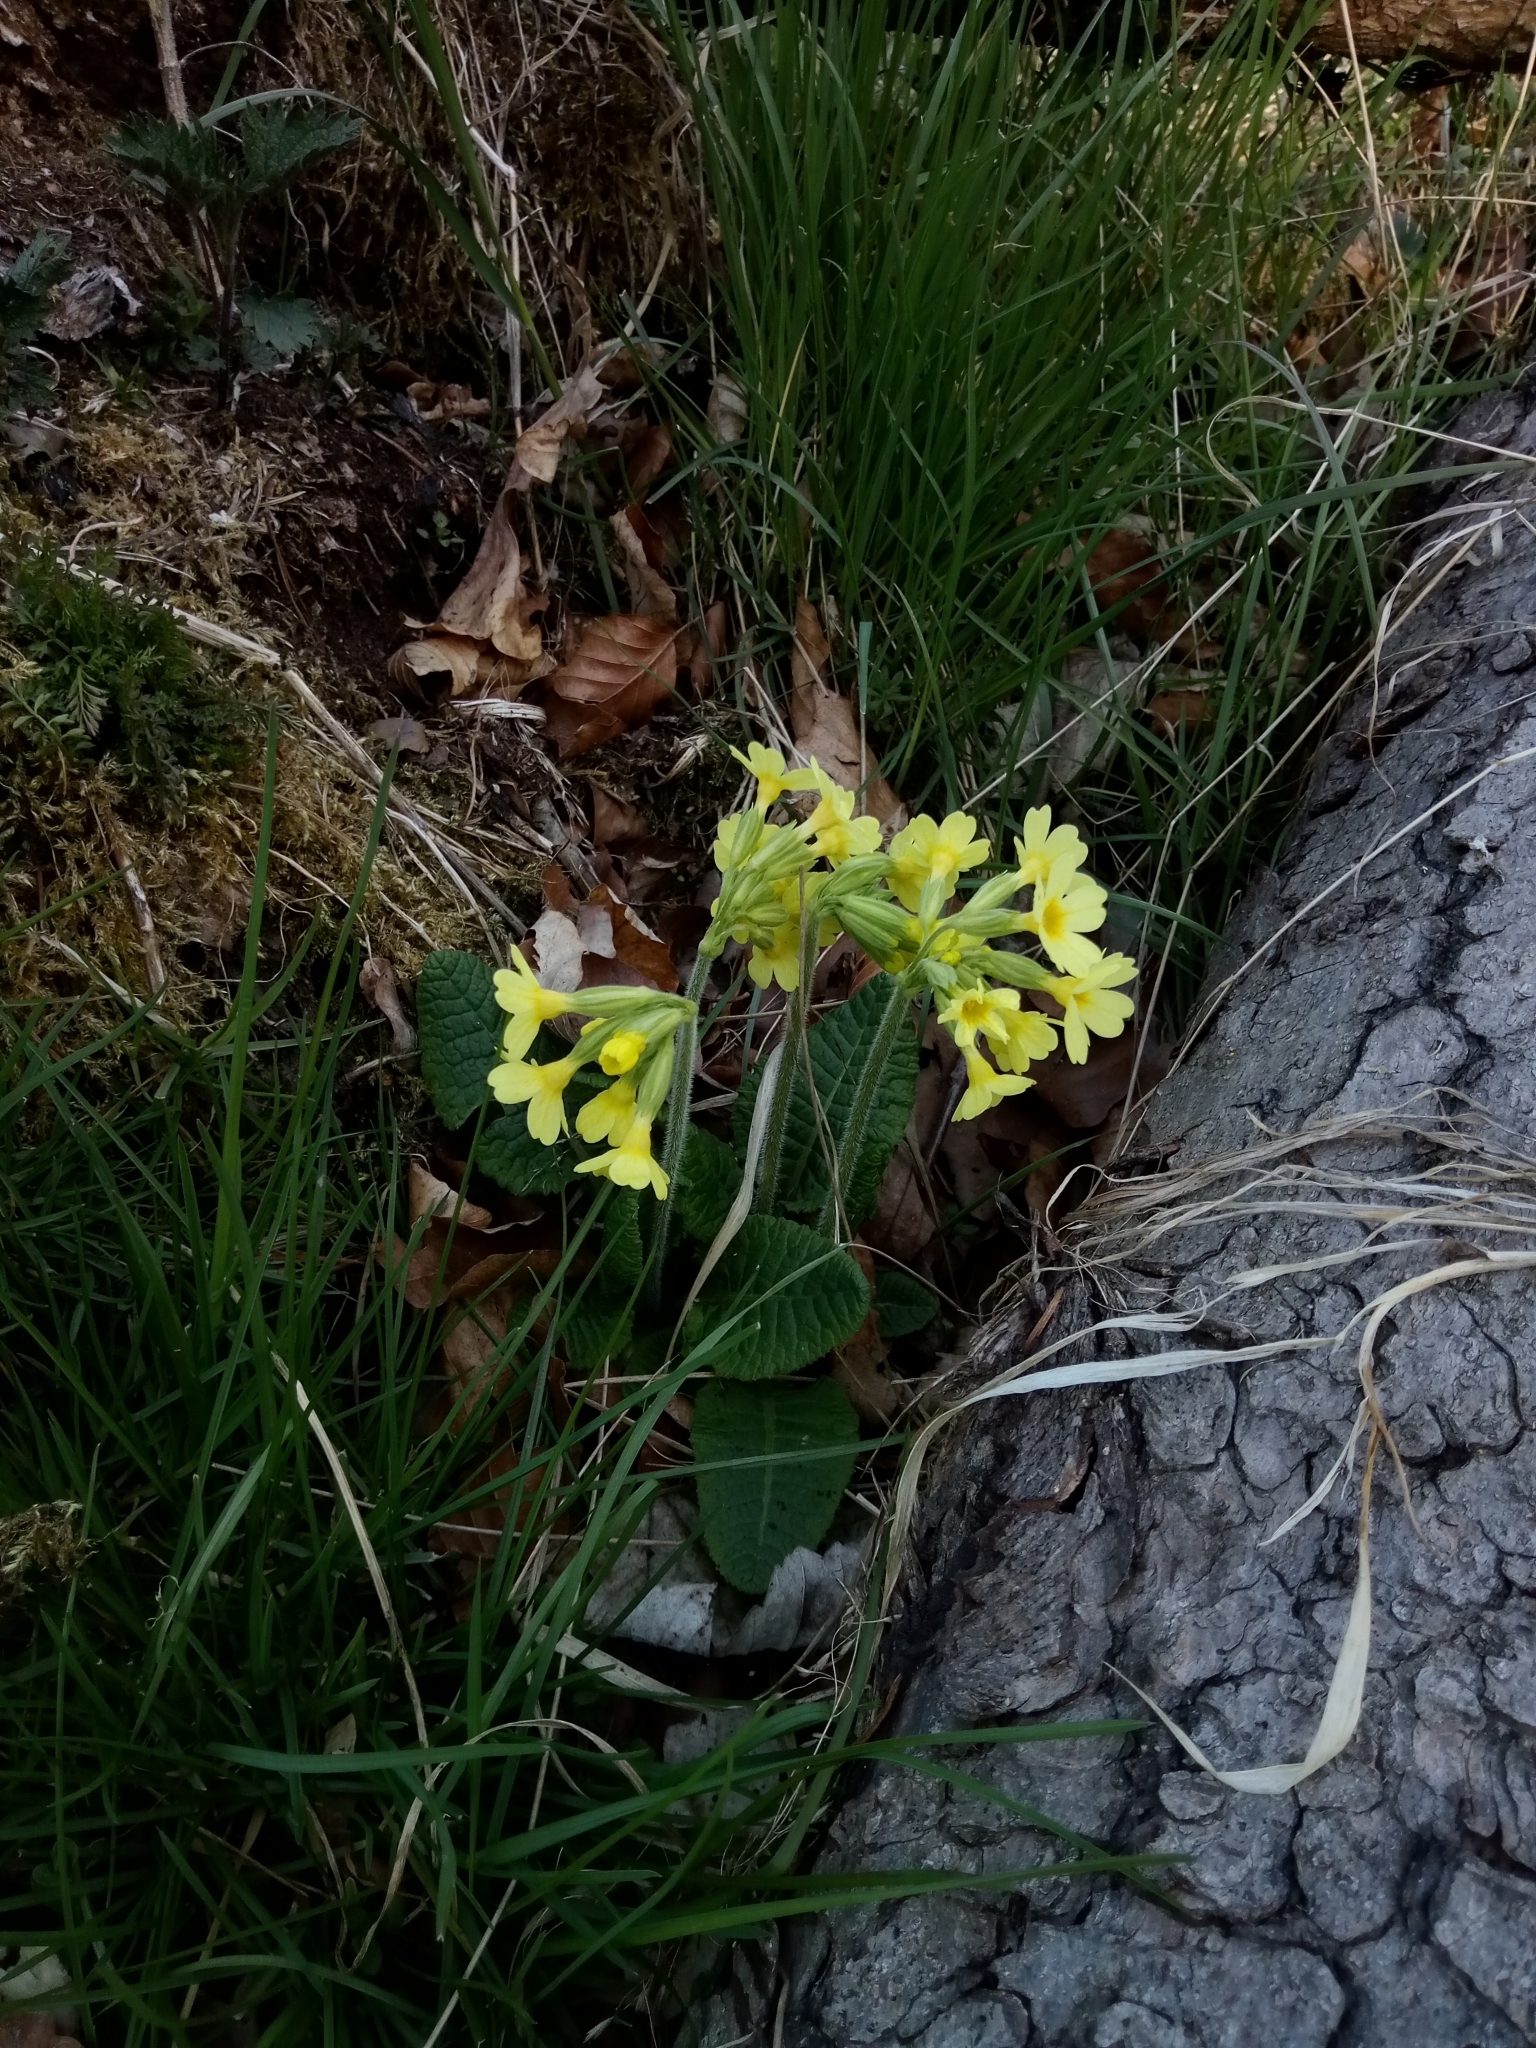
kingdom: Plantae
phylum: Tracheophyta
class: Magnoliopsida
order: Ericales
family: Primulaceae
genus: Primula
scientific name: Primula elatior
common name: Oxlip
